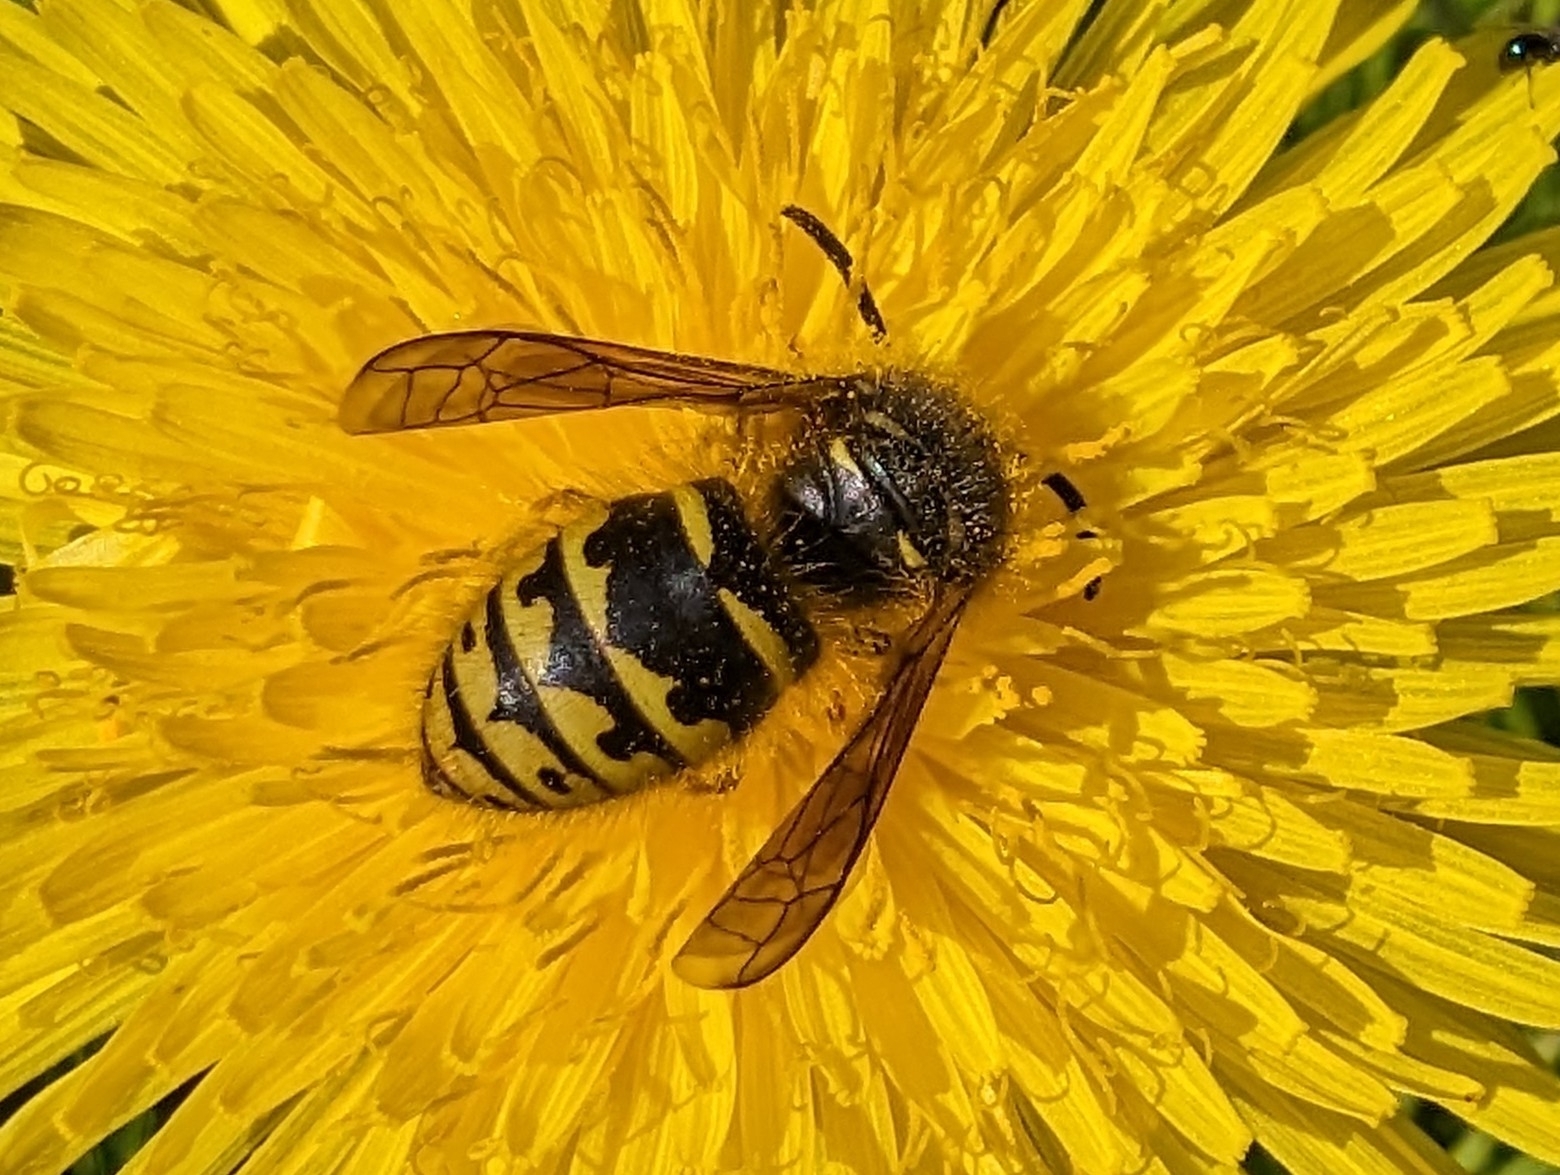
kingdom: Animalia
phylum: Arthropoda
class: Insecta
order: Hymenoptera
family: Vespidae
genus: Dolichovespula
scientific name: Dolichovespula arenaria
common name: Aerial yellowjacket
